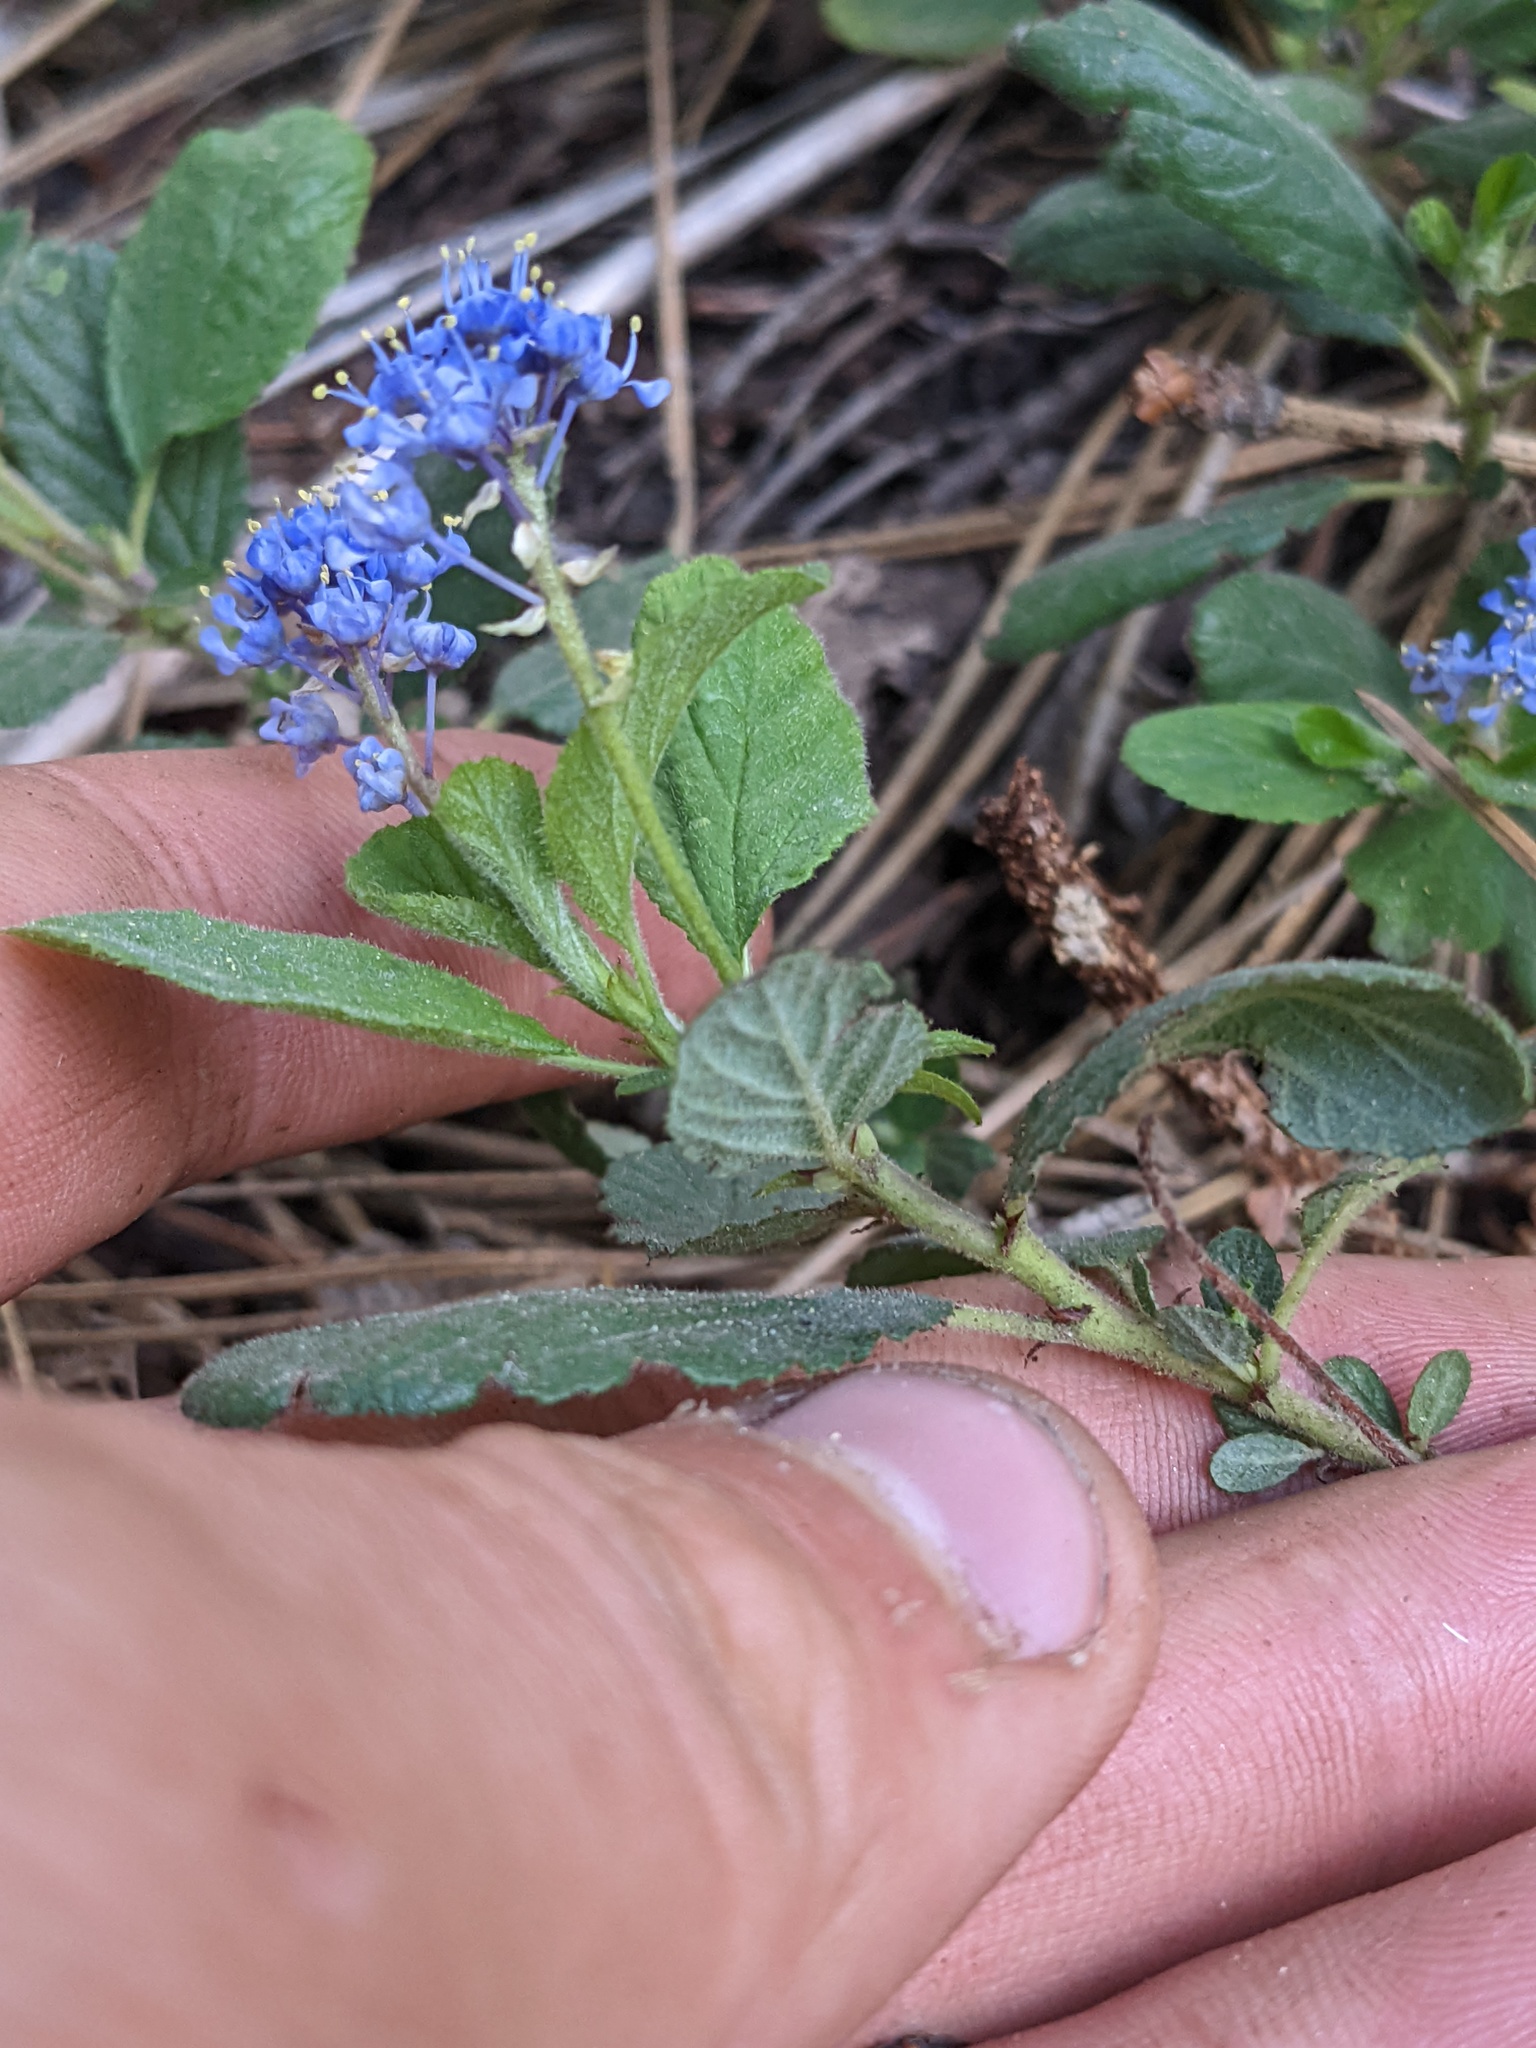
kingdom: Plantae
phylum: Tracheophyta
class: Magnoliopsida
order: Rosales
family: Rhamnaceae
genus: Ceanothus
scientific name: Ceanothus diversifolius
